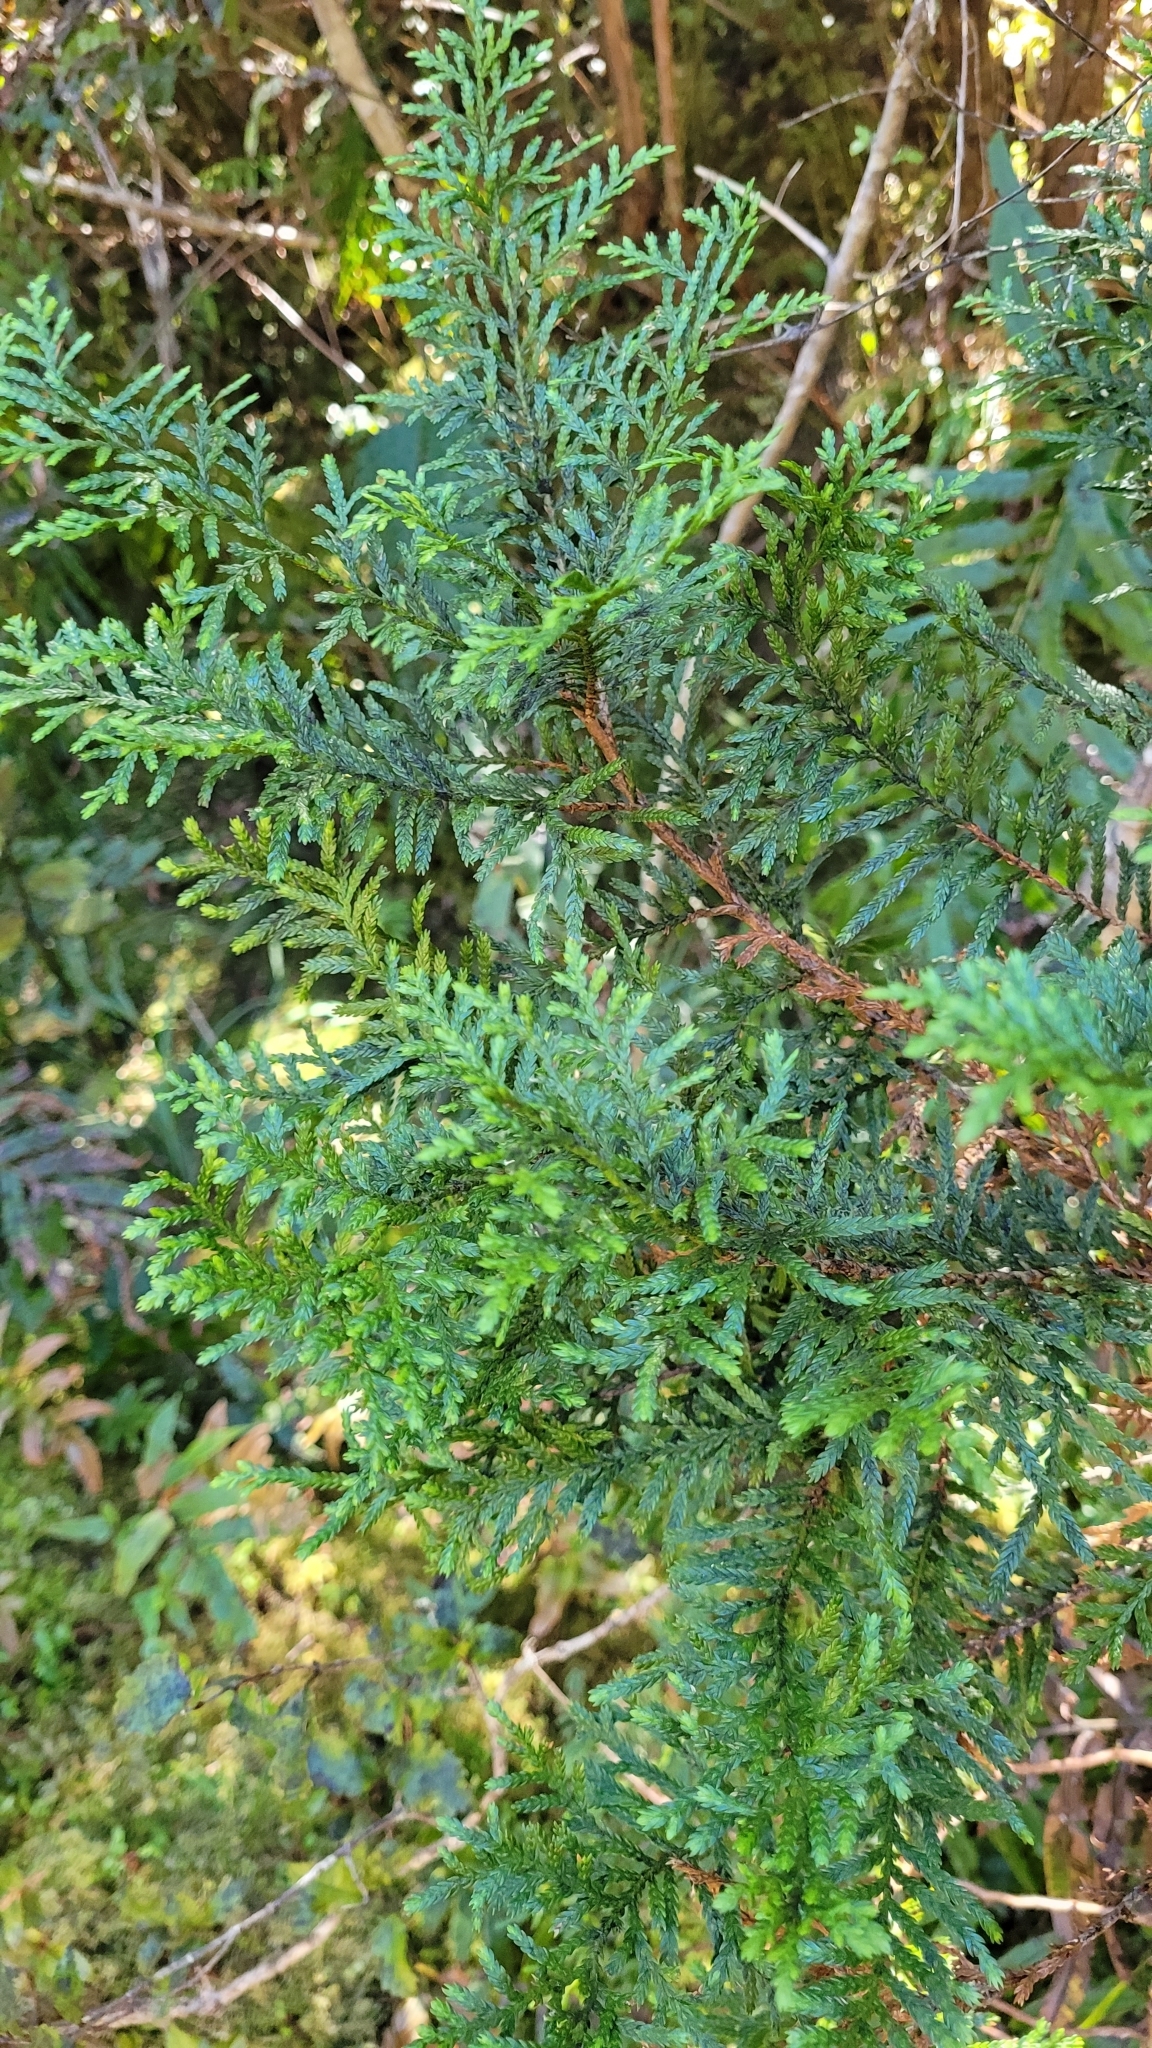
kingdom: Plantae
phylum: Tracheophyta
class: Pinopsida
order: Pinales
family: Cupressaceae
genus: Libocedrus
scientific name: Libocedrus bidwillii
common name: Cedar
